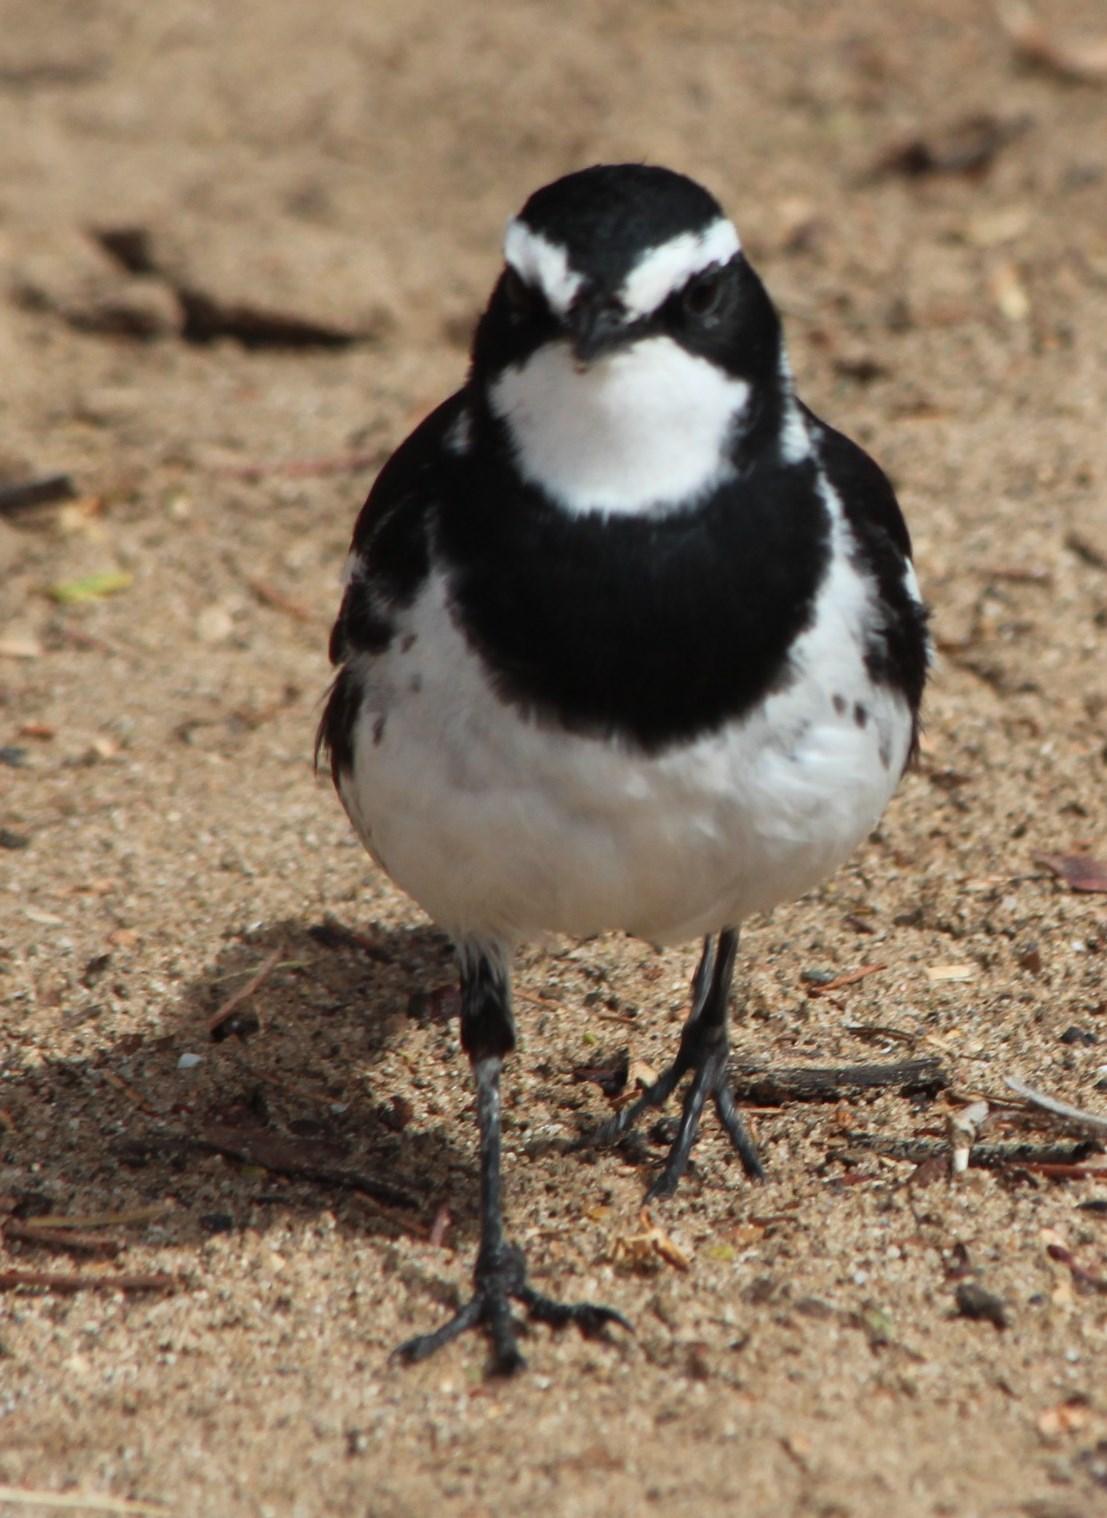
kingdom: Animalia
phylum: Chordata
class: Aves
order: Passeriformes
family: Motacillidae
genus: Motacilla
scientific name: Motacilla aguimp
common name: African pied wagtail
